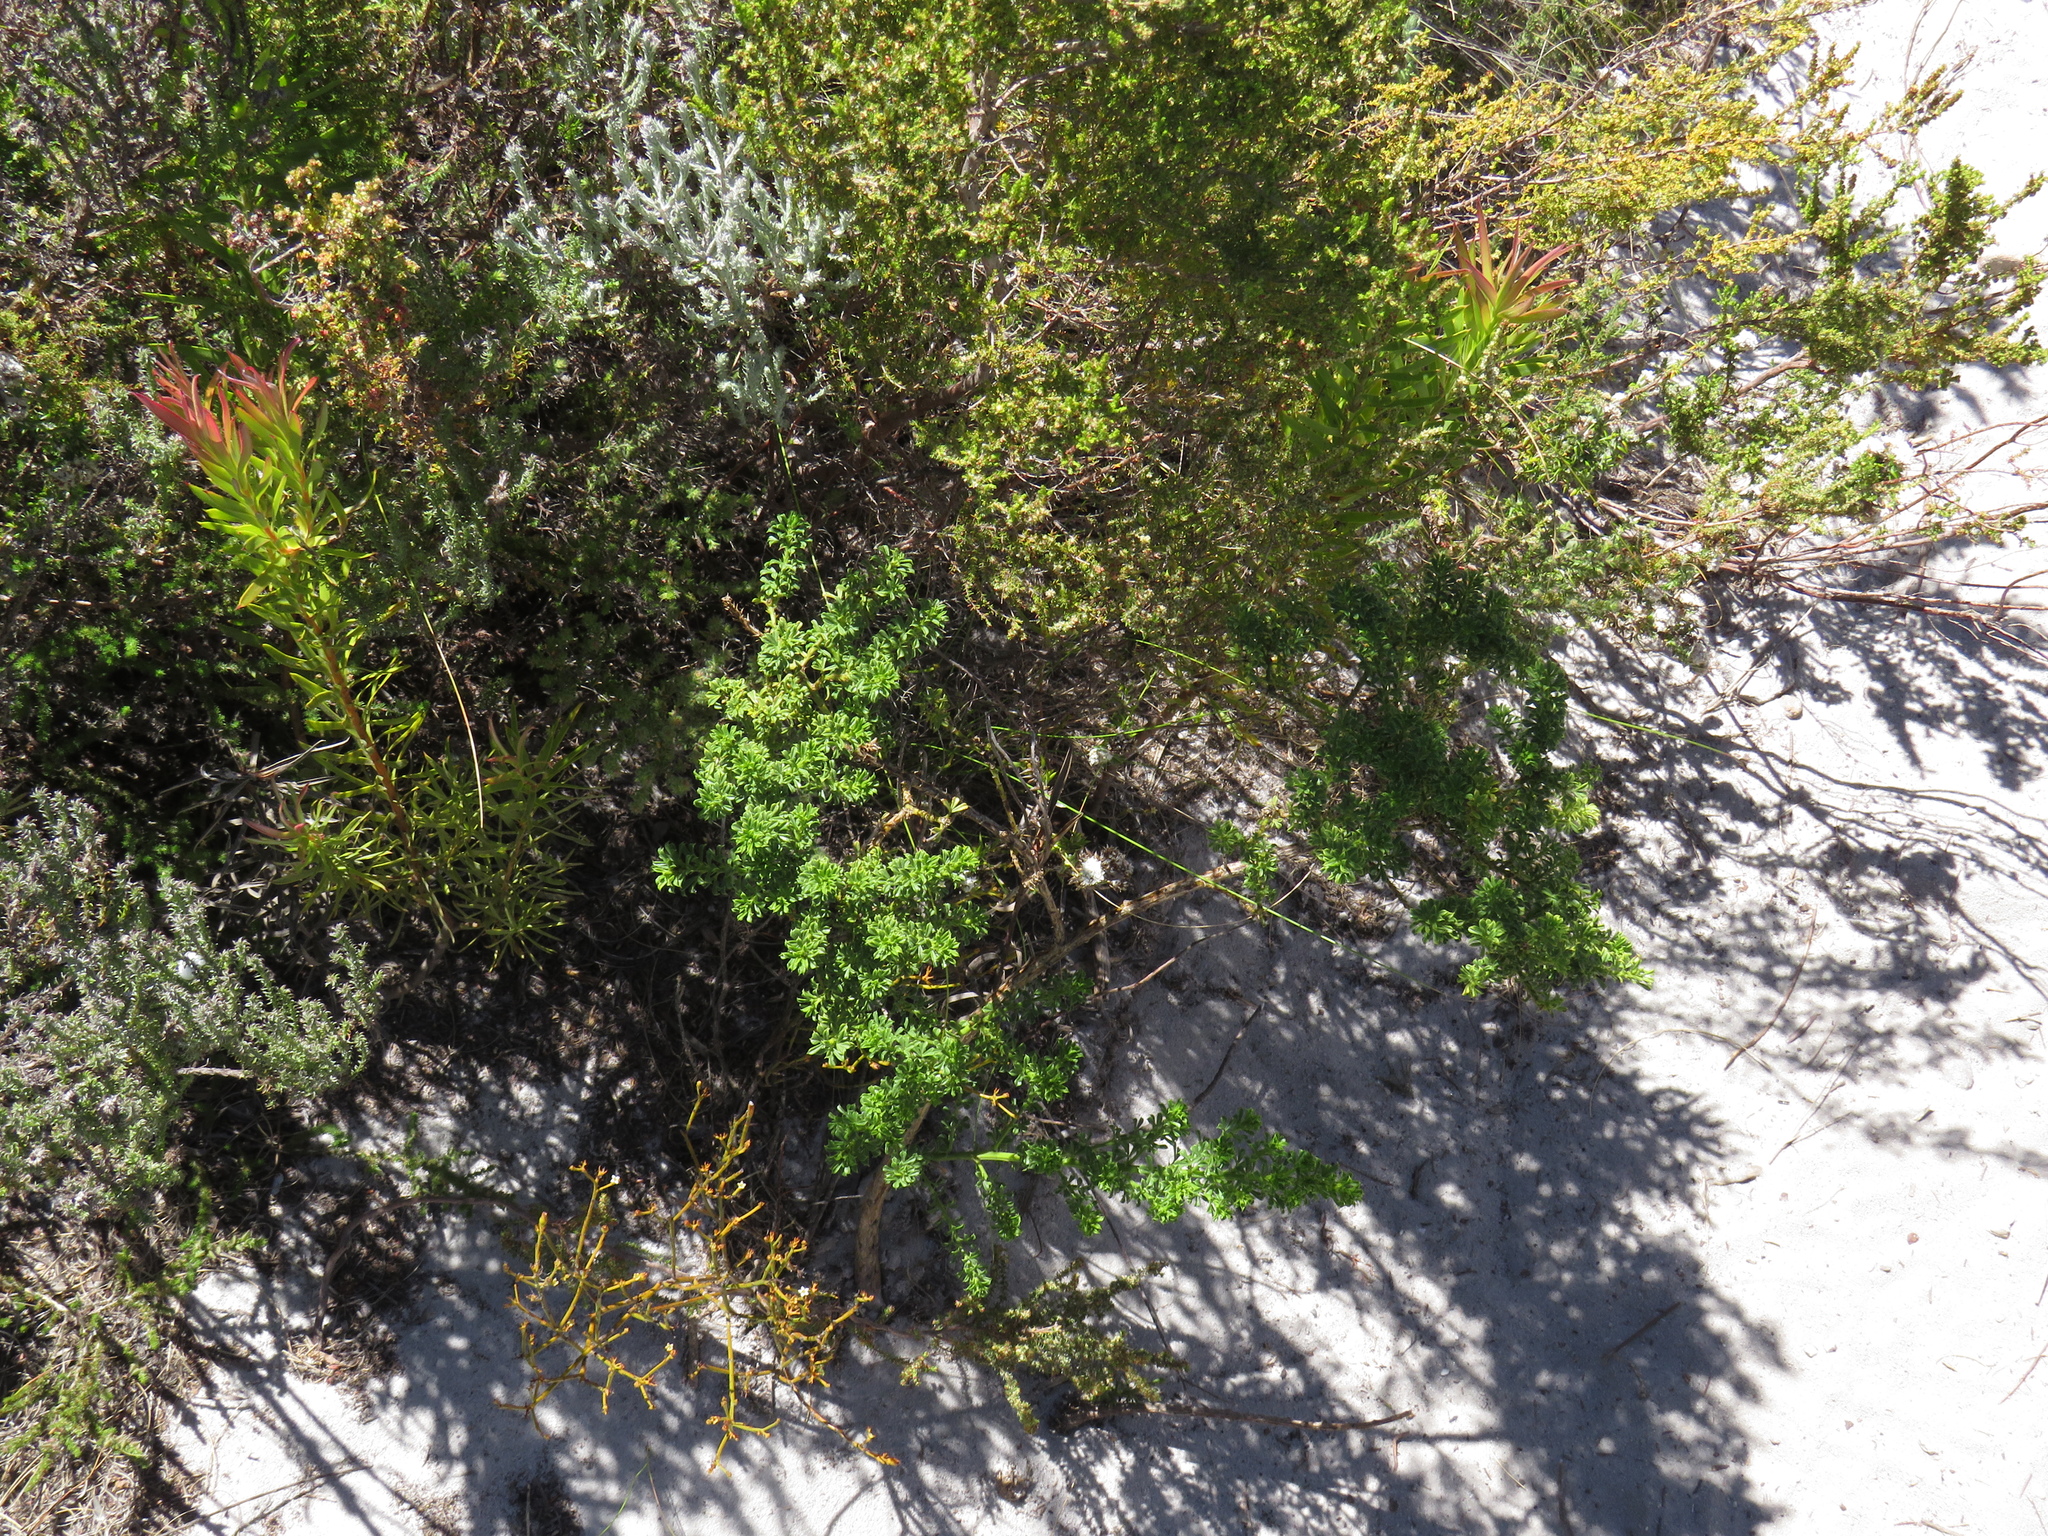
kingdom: Plantae
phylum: Tracheophyta
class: Magnoliopsida
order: Fabales
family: Fabaceae
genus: Psoralea
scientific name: Psoralea aculeata
